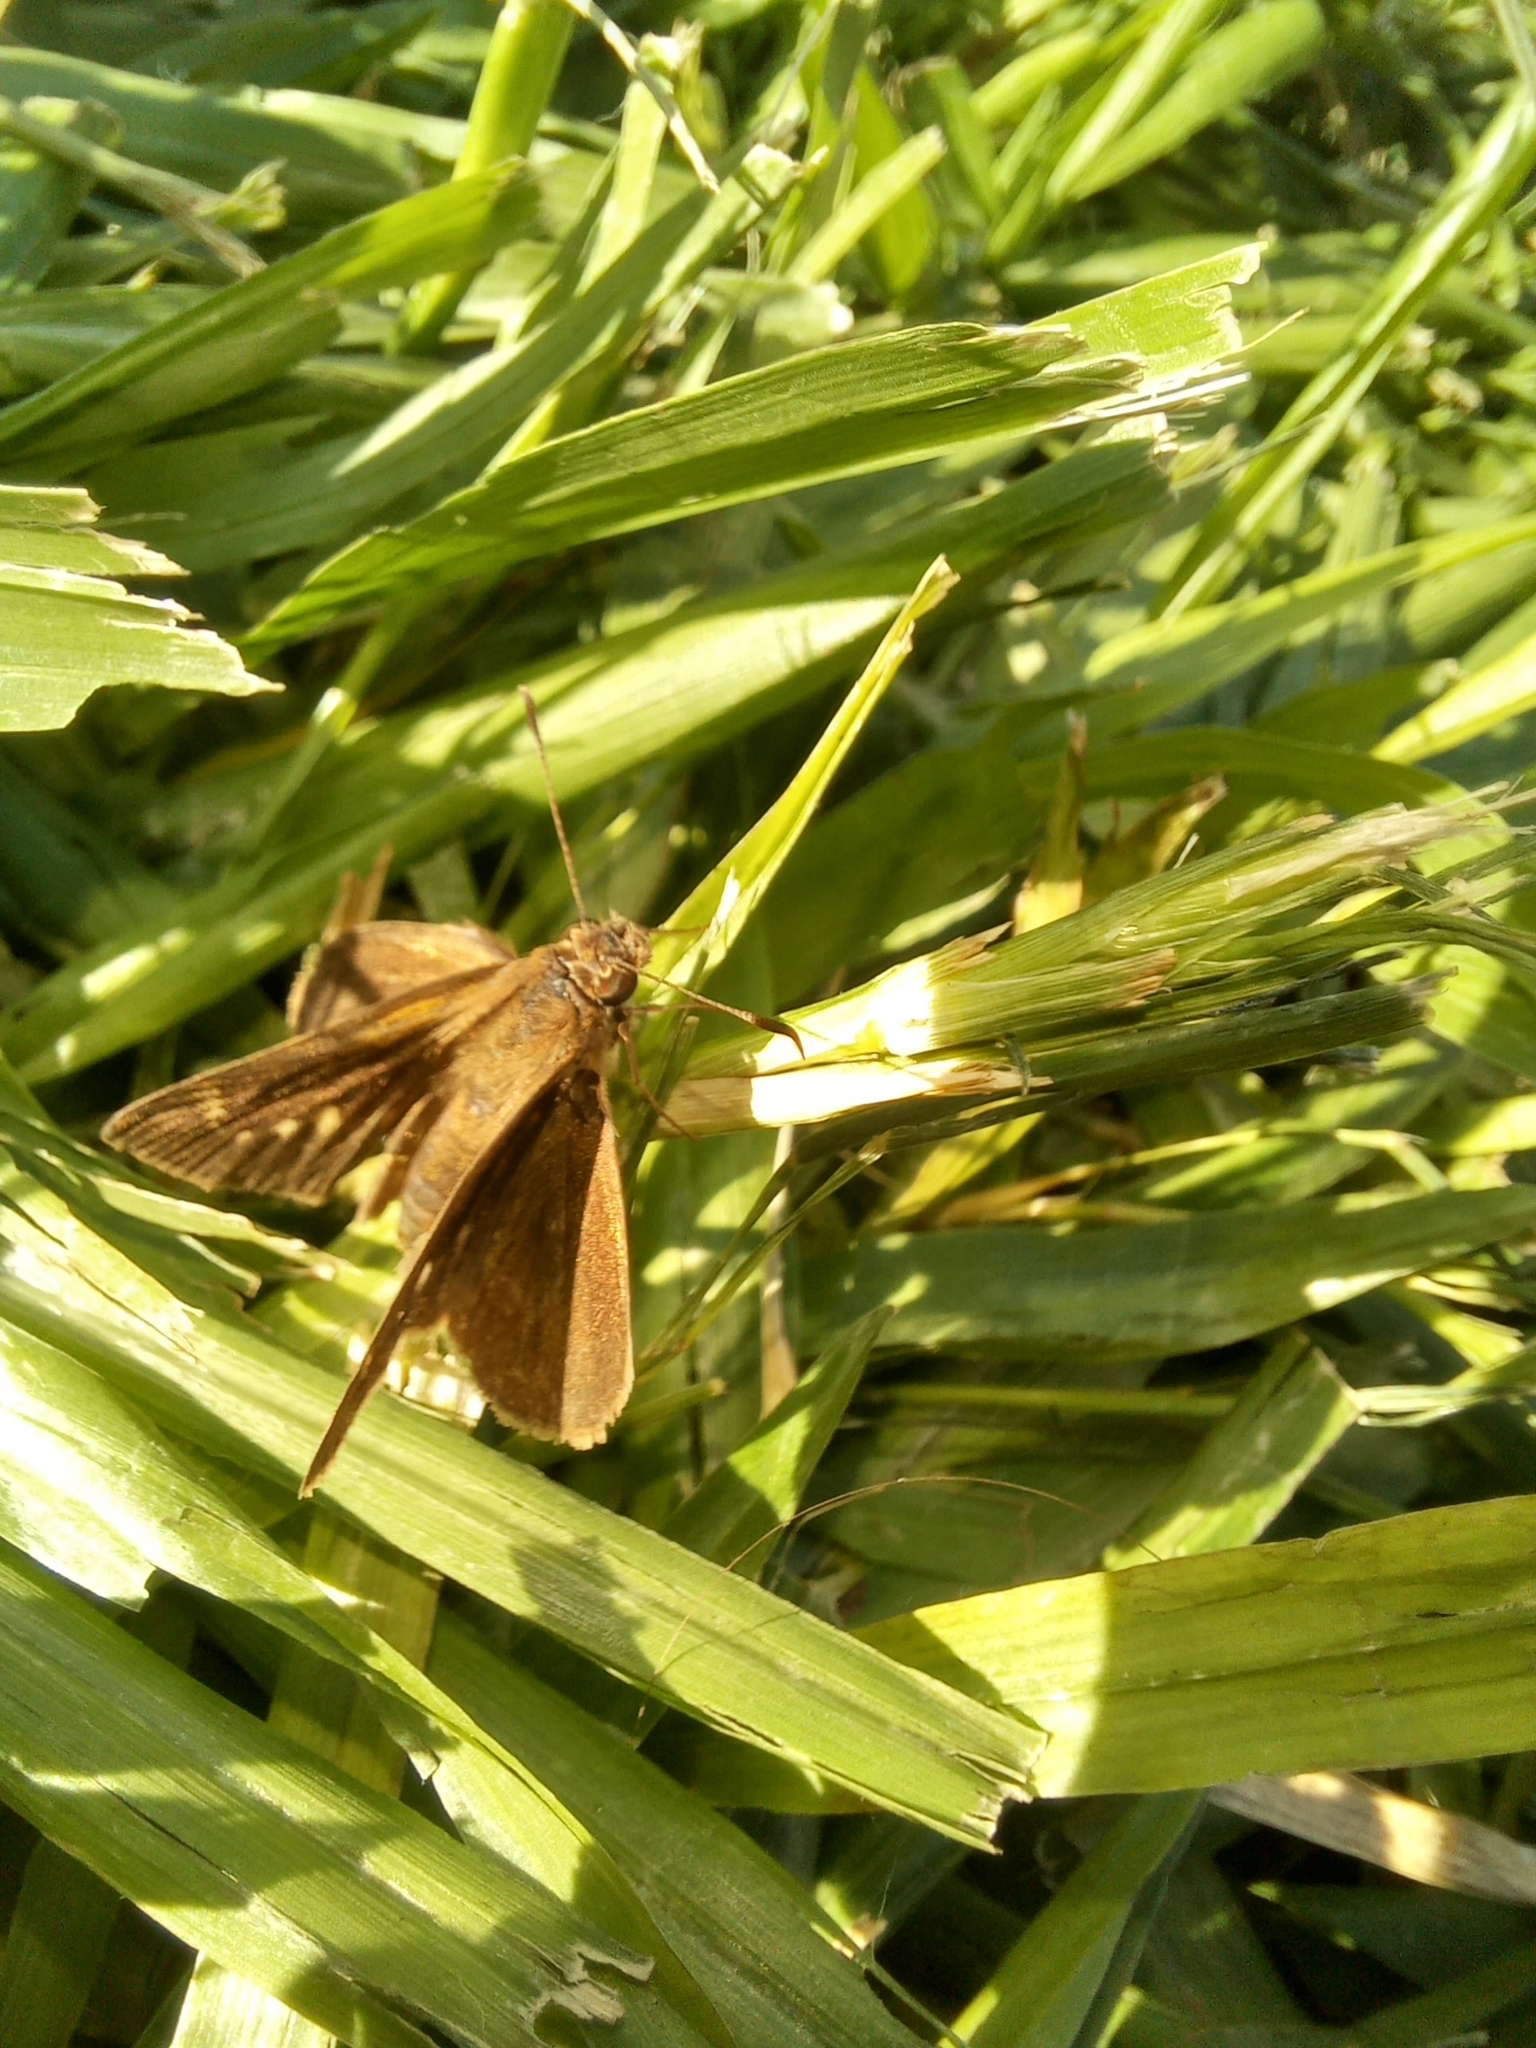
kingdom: Animalia
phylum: Arthropoda
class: Insecta
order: Lepidoptera
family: Hesperiidae
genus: Cymaenes
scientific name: Cymaenes gisca
